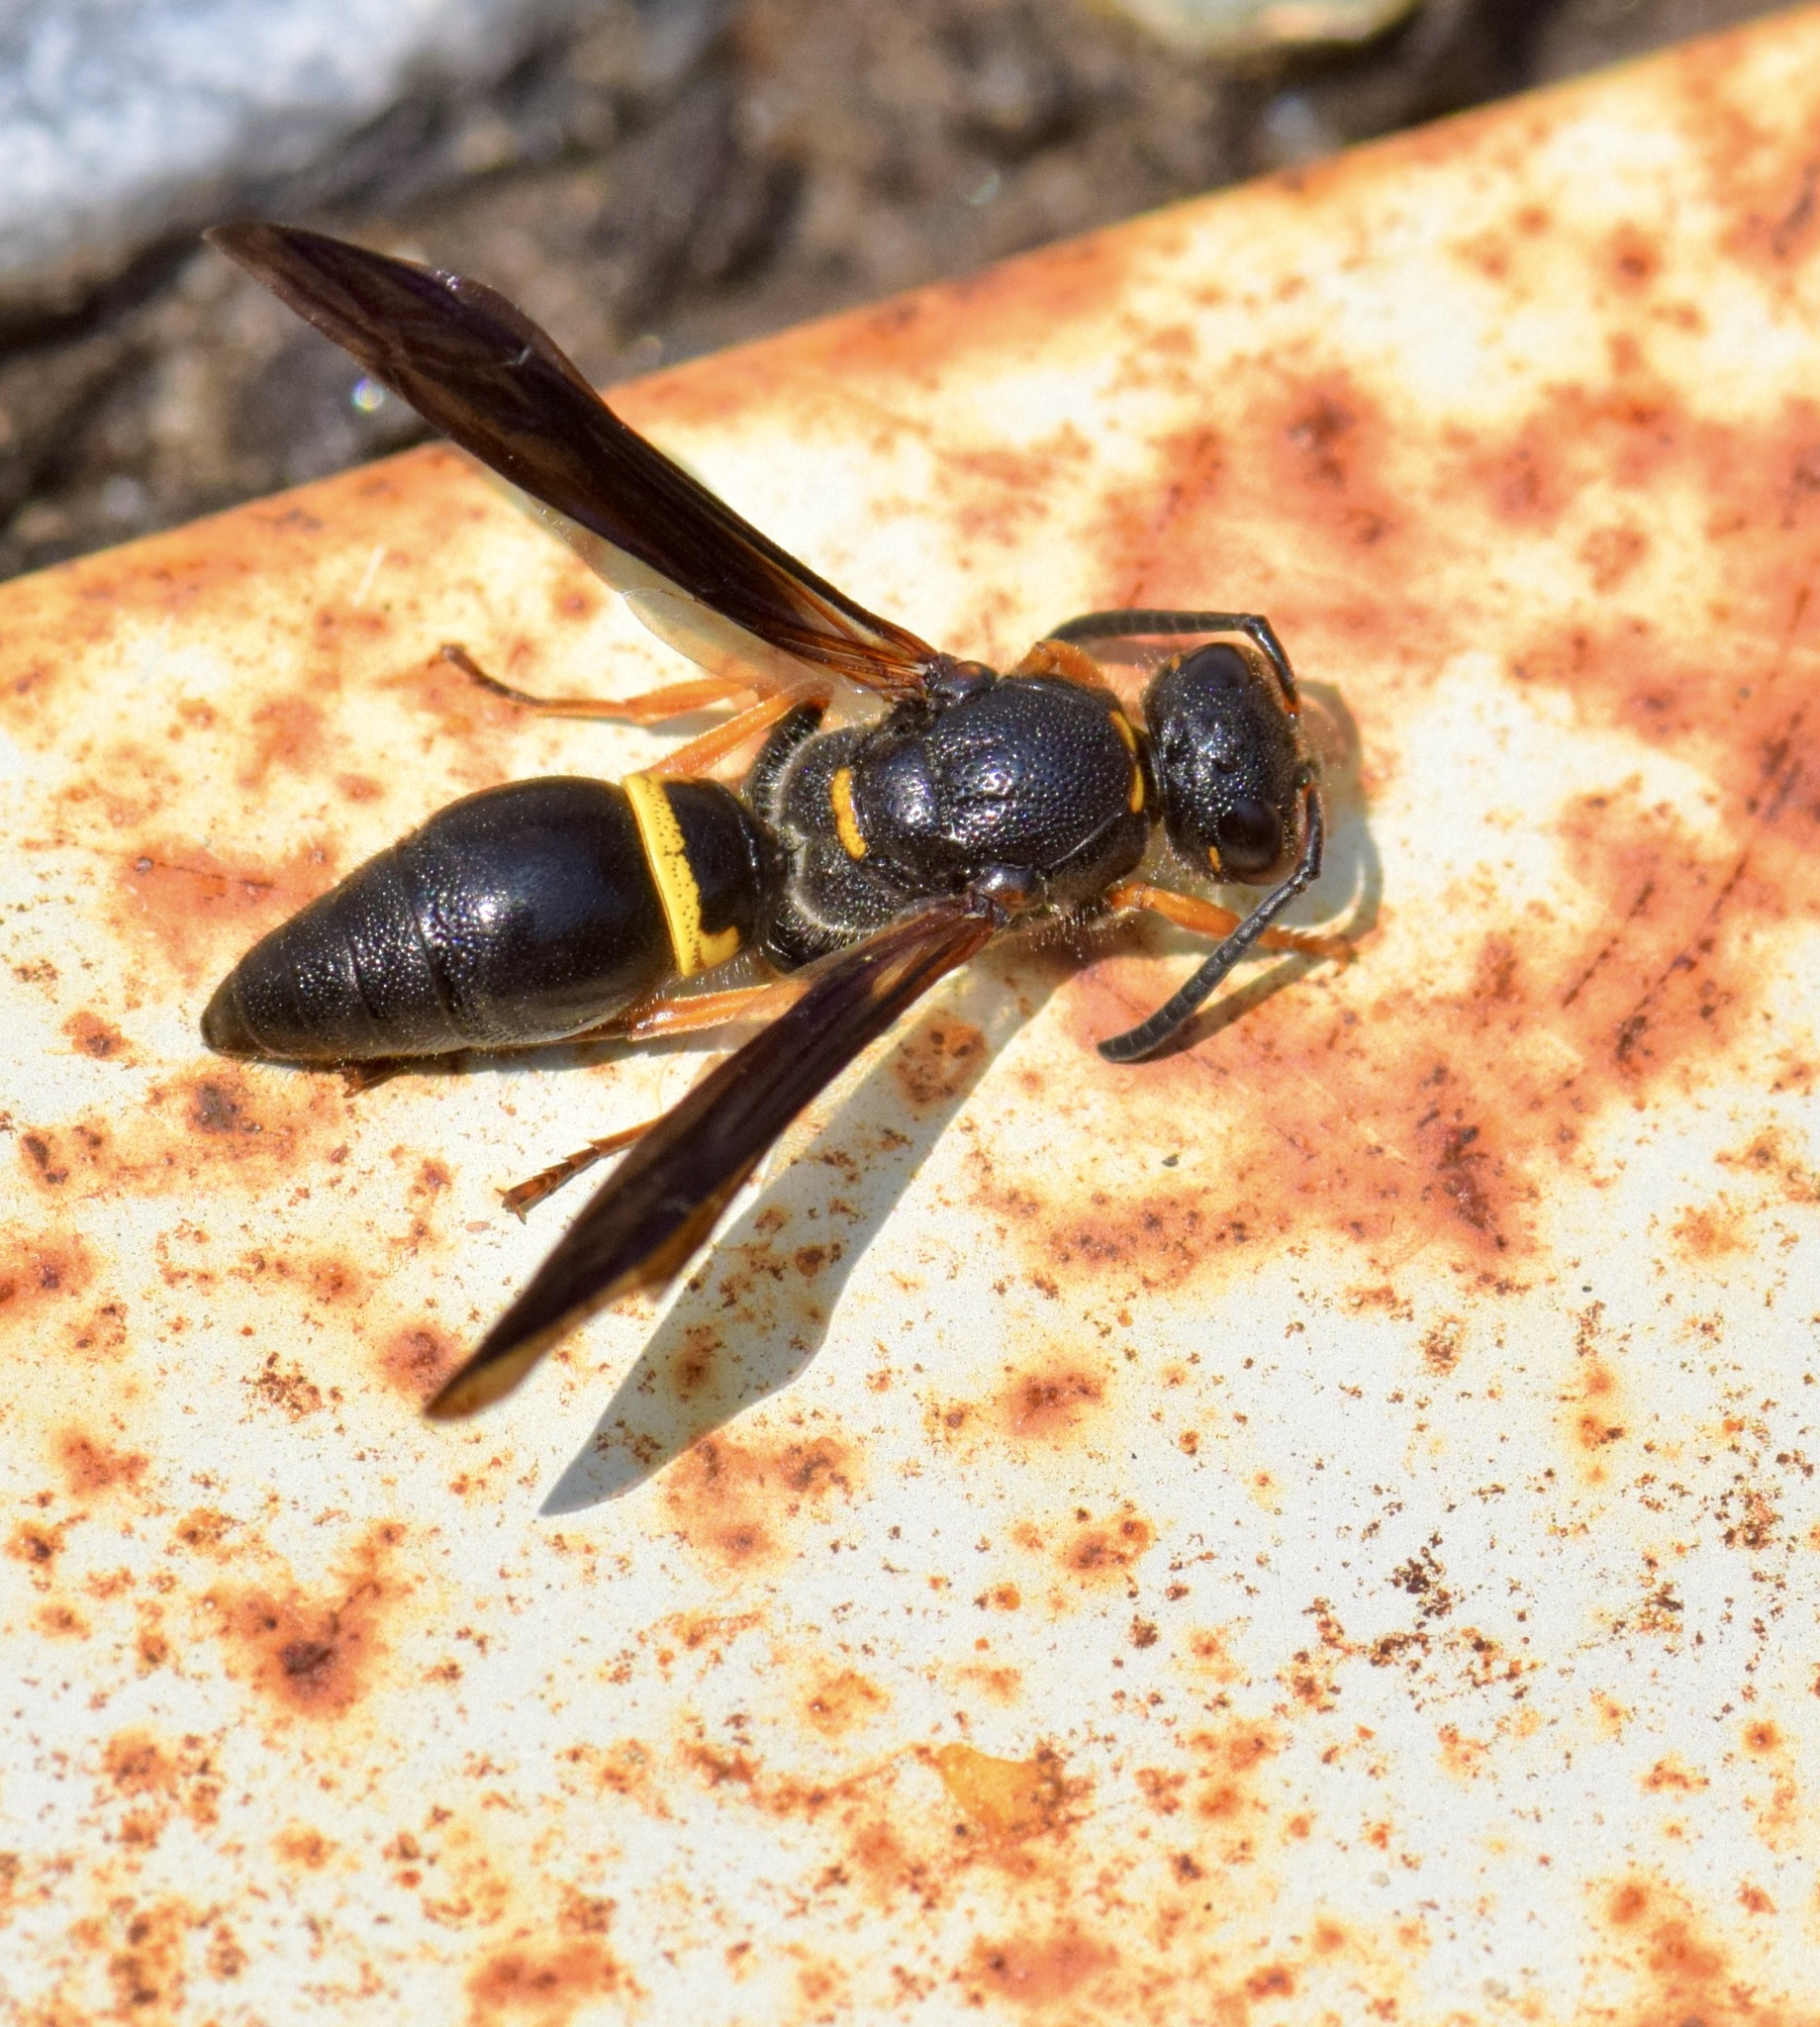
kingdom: Animalia
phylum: Arthropoda
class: Insecta
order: Hymenoptera
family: Vespidae
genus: Ancistrocerus
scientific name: Ancistrocerus unifasciatus
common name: One-banded mason wasp
